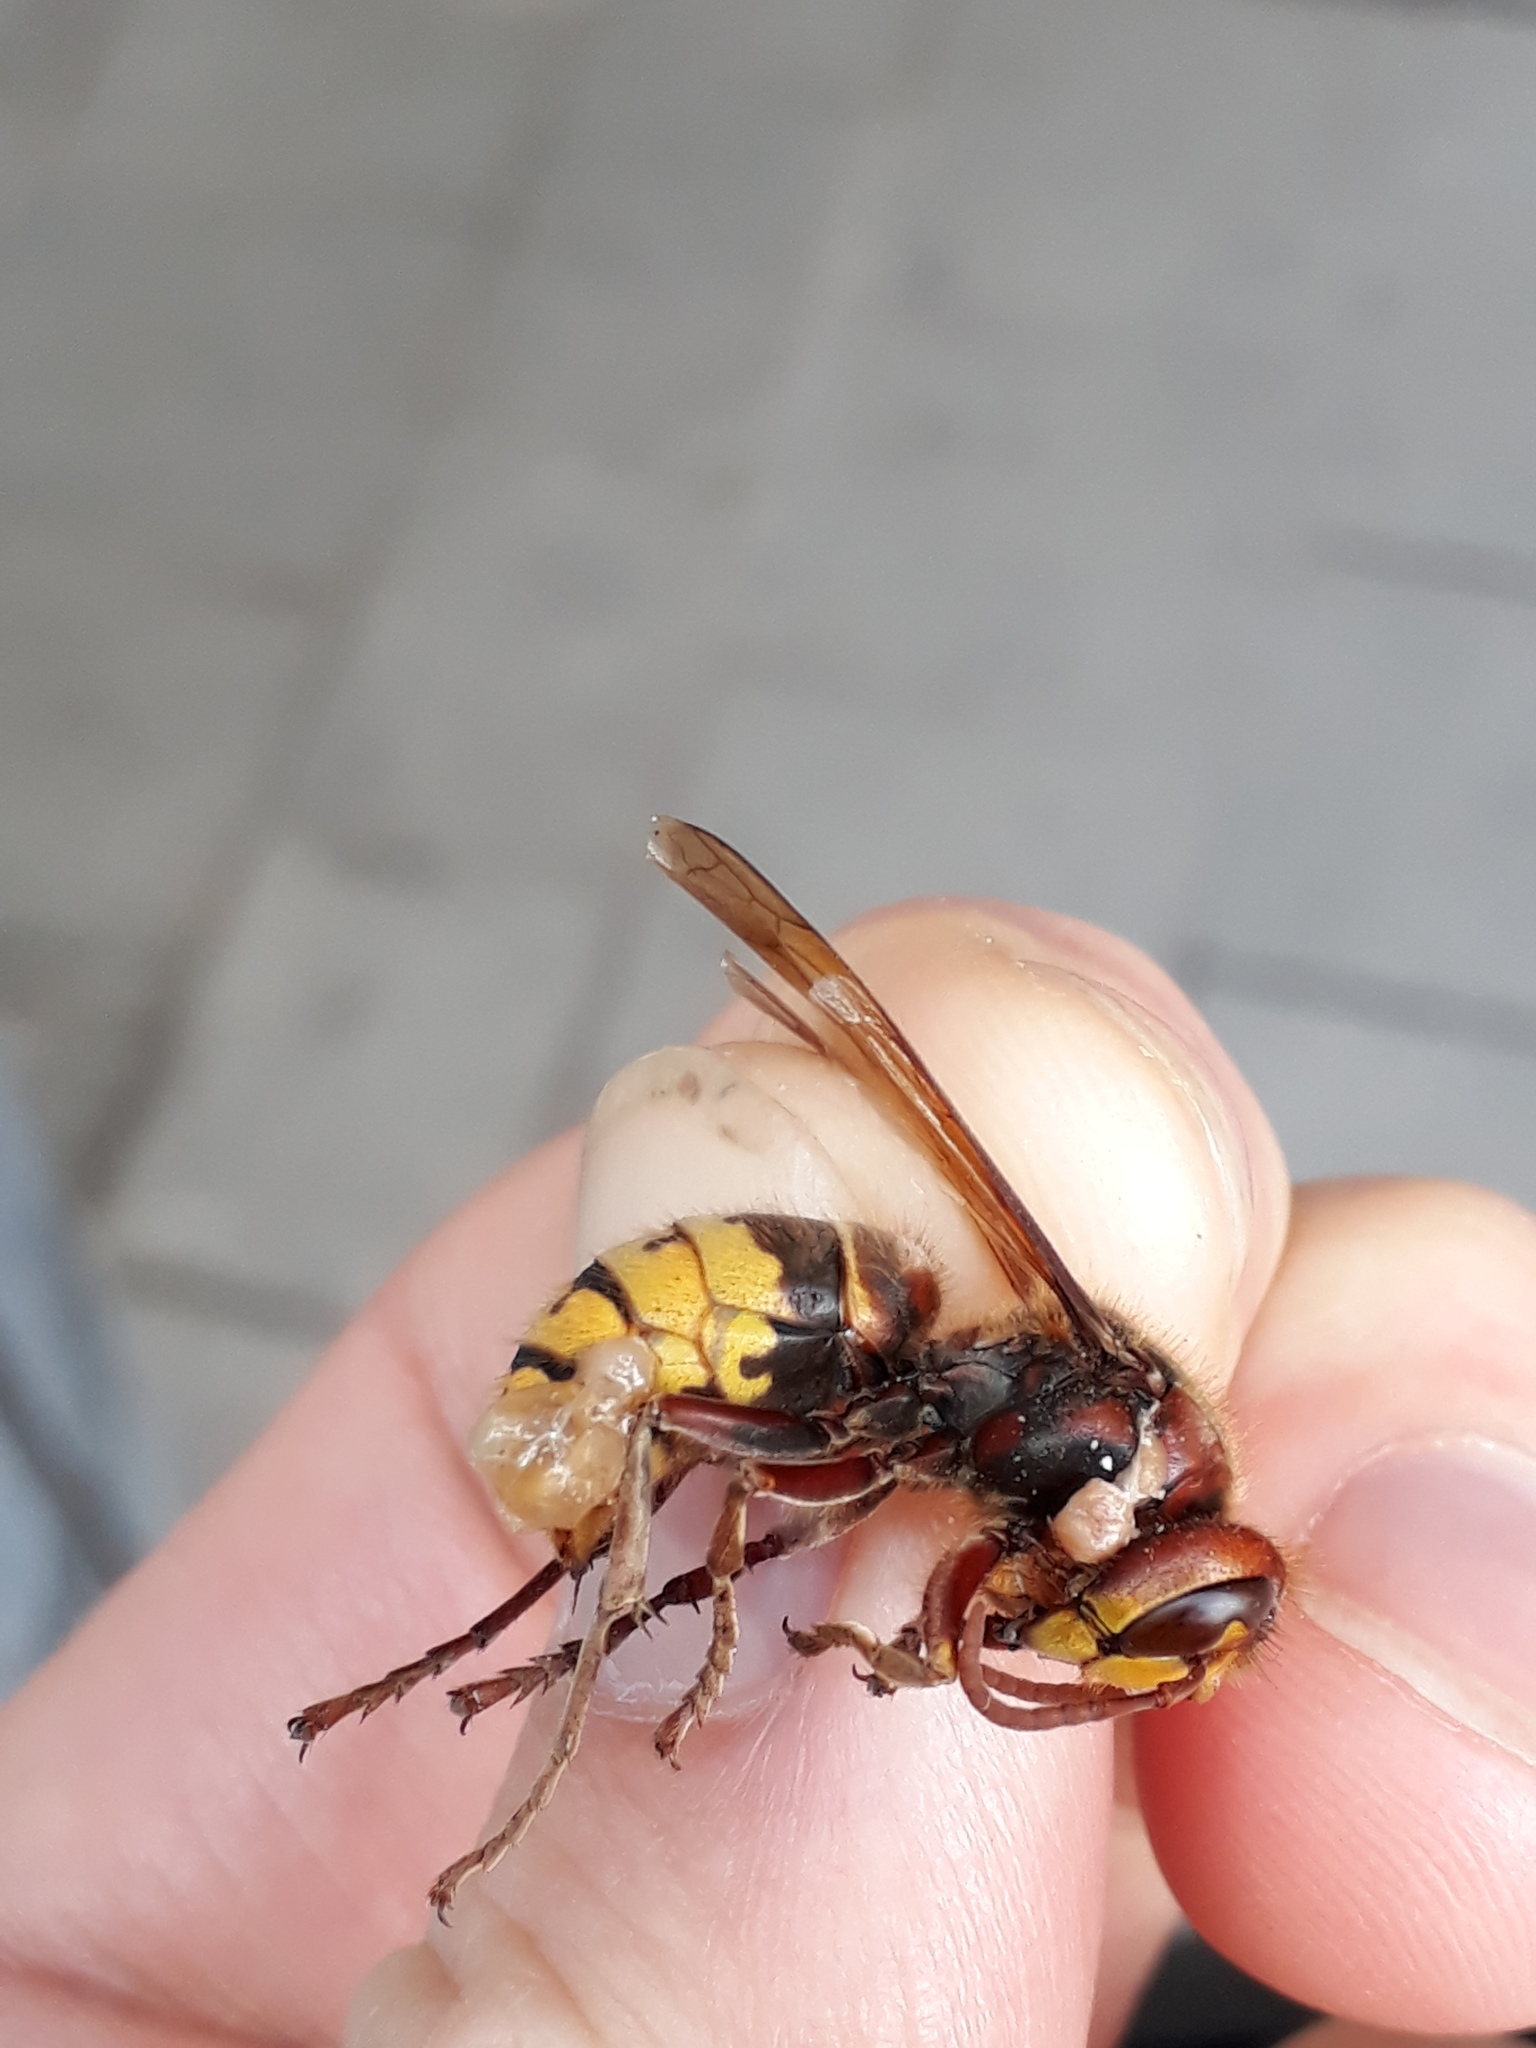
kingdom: Animalia
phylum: Arthropoda
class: Insecta
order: Hymenoptera
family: Vespidae
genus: Vespa
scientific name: Vespa crabro
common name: Hornet
